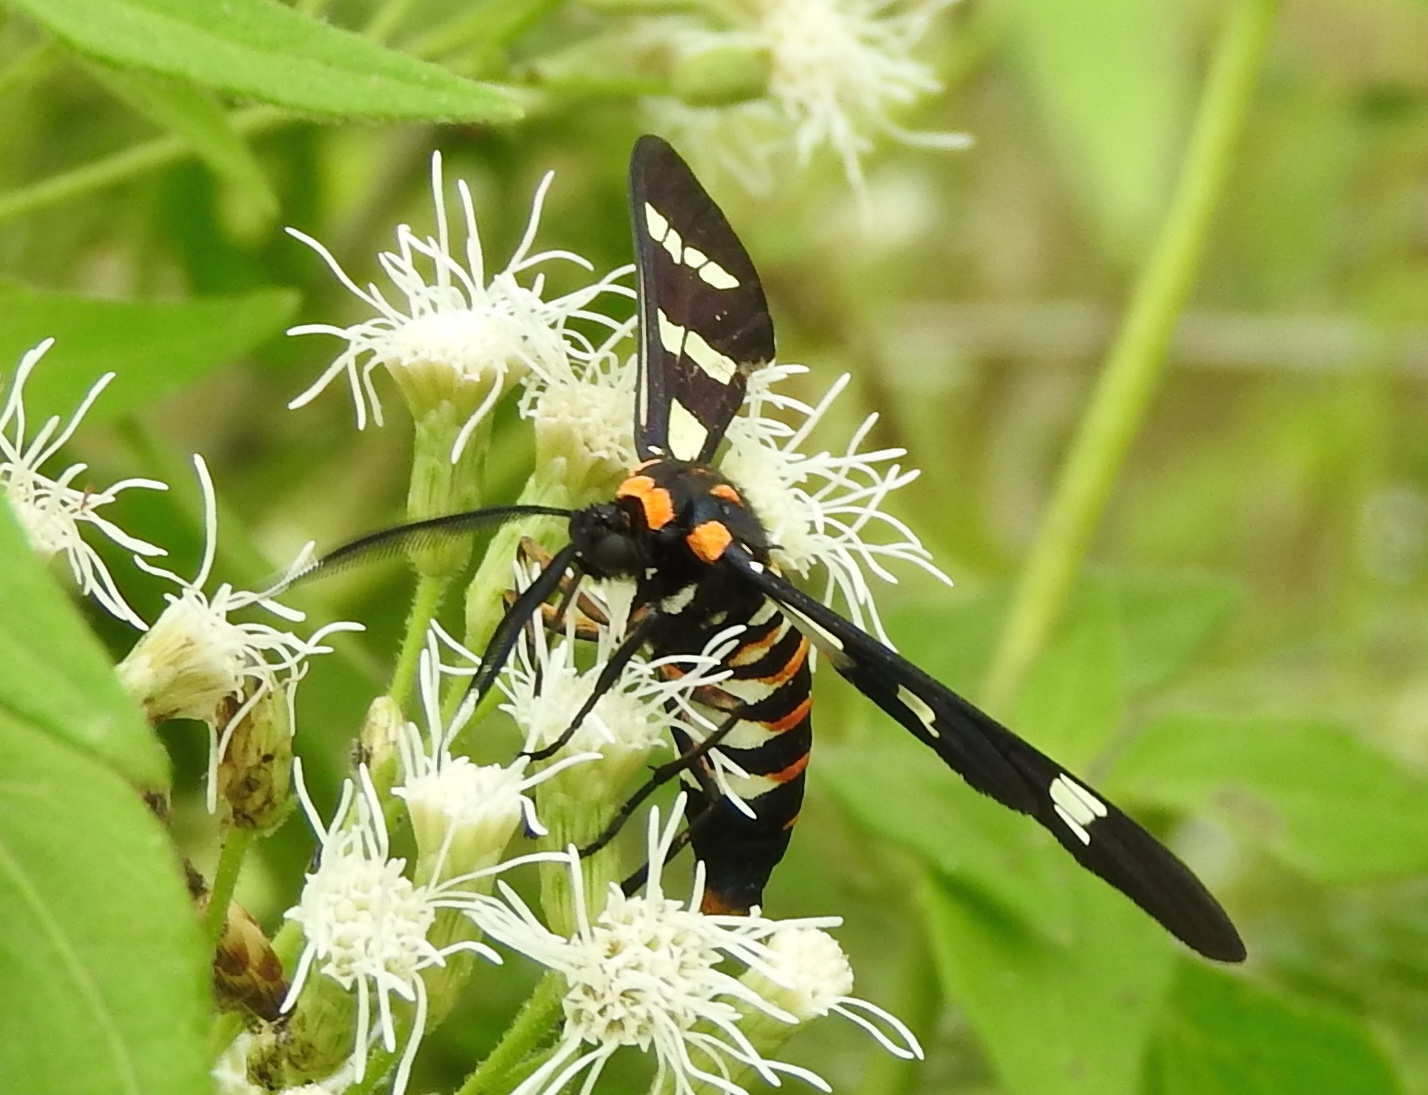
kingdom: Animalia
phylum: Arthropoda
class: Insecta
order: Lepidoptera
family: Erebidae
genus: Syntomeida
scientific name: Syntomeida melanthus
